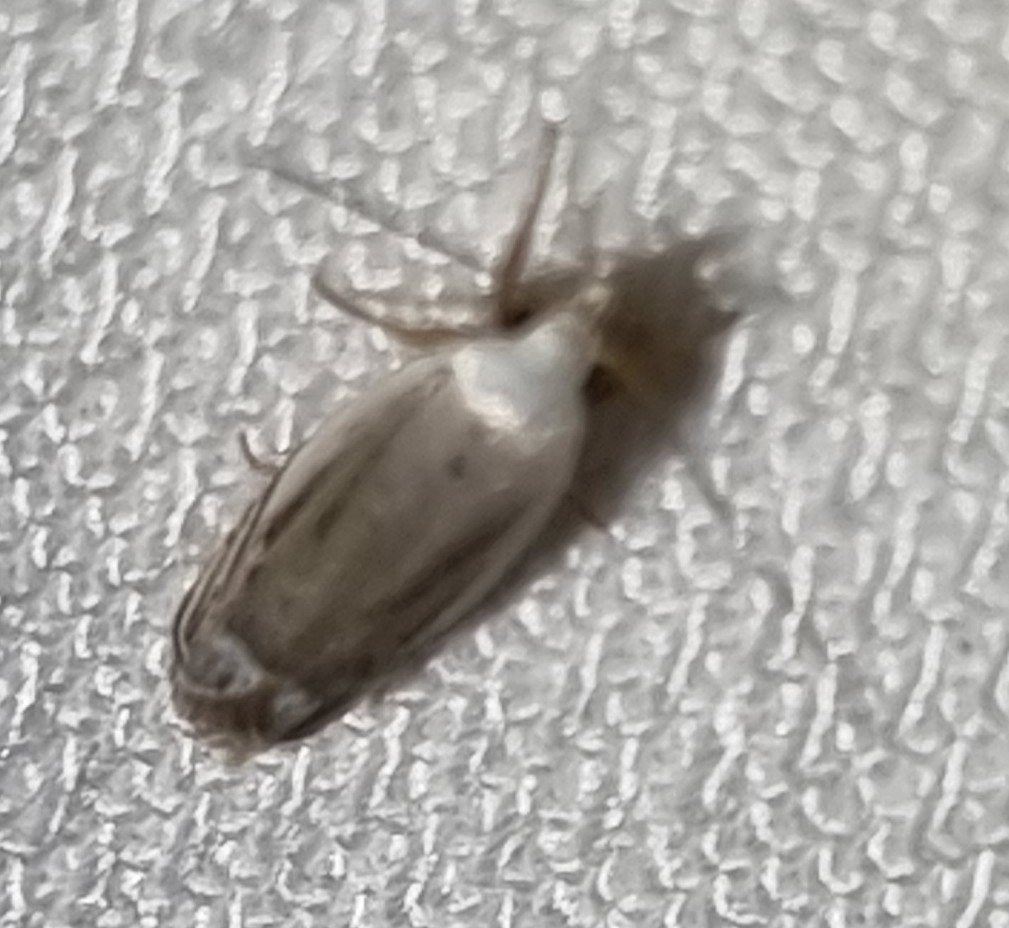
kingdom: Animalia
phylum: Arthropoda
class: Insecta
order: Lepidoptera
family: Xyloryctidae
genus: Plectophila
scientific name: Plectophila discalis
